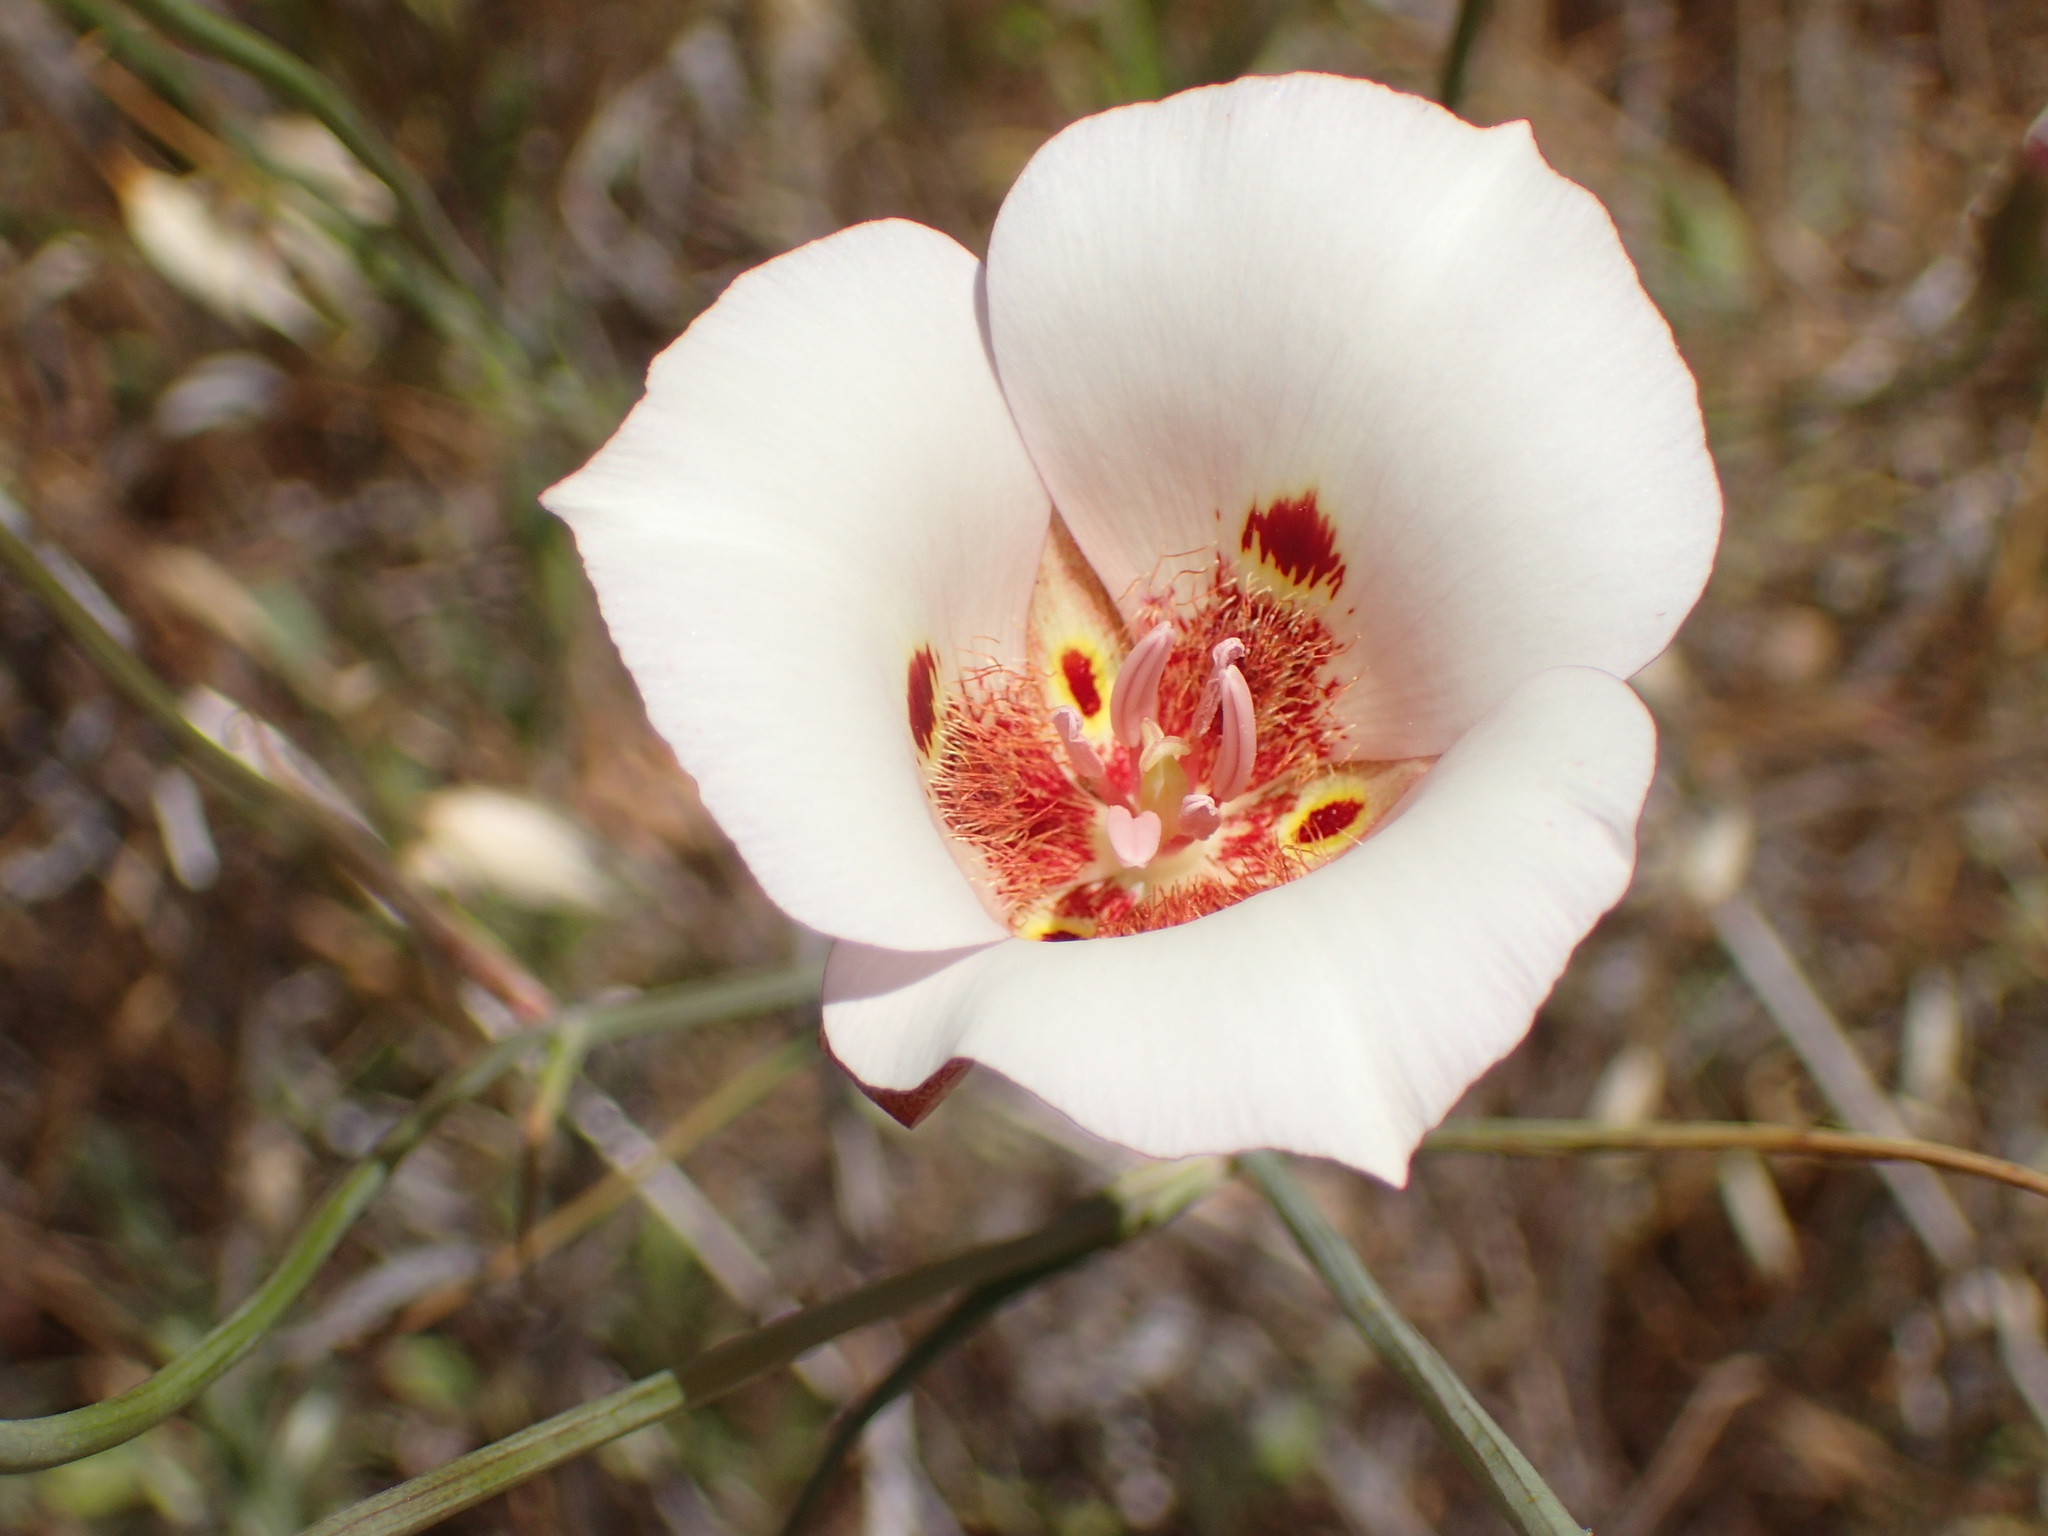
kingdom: Plantae
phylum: Tracheophyta
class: Liliopsida
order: Liliales
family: Liliaceae
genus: Calochortus
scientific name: Calochortus venustus
